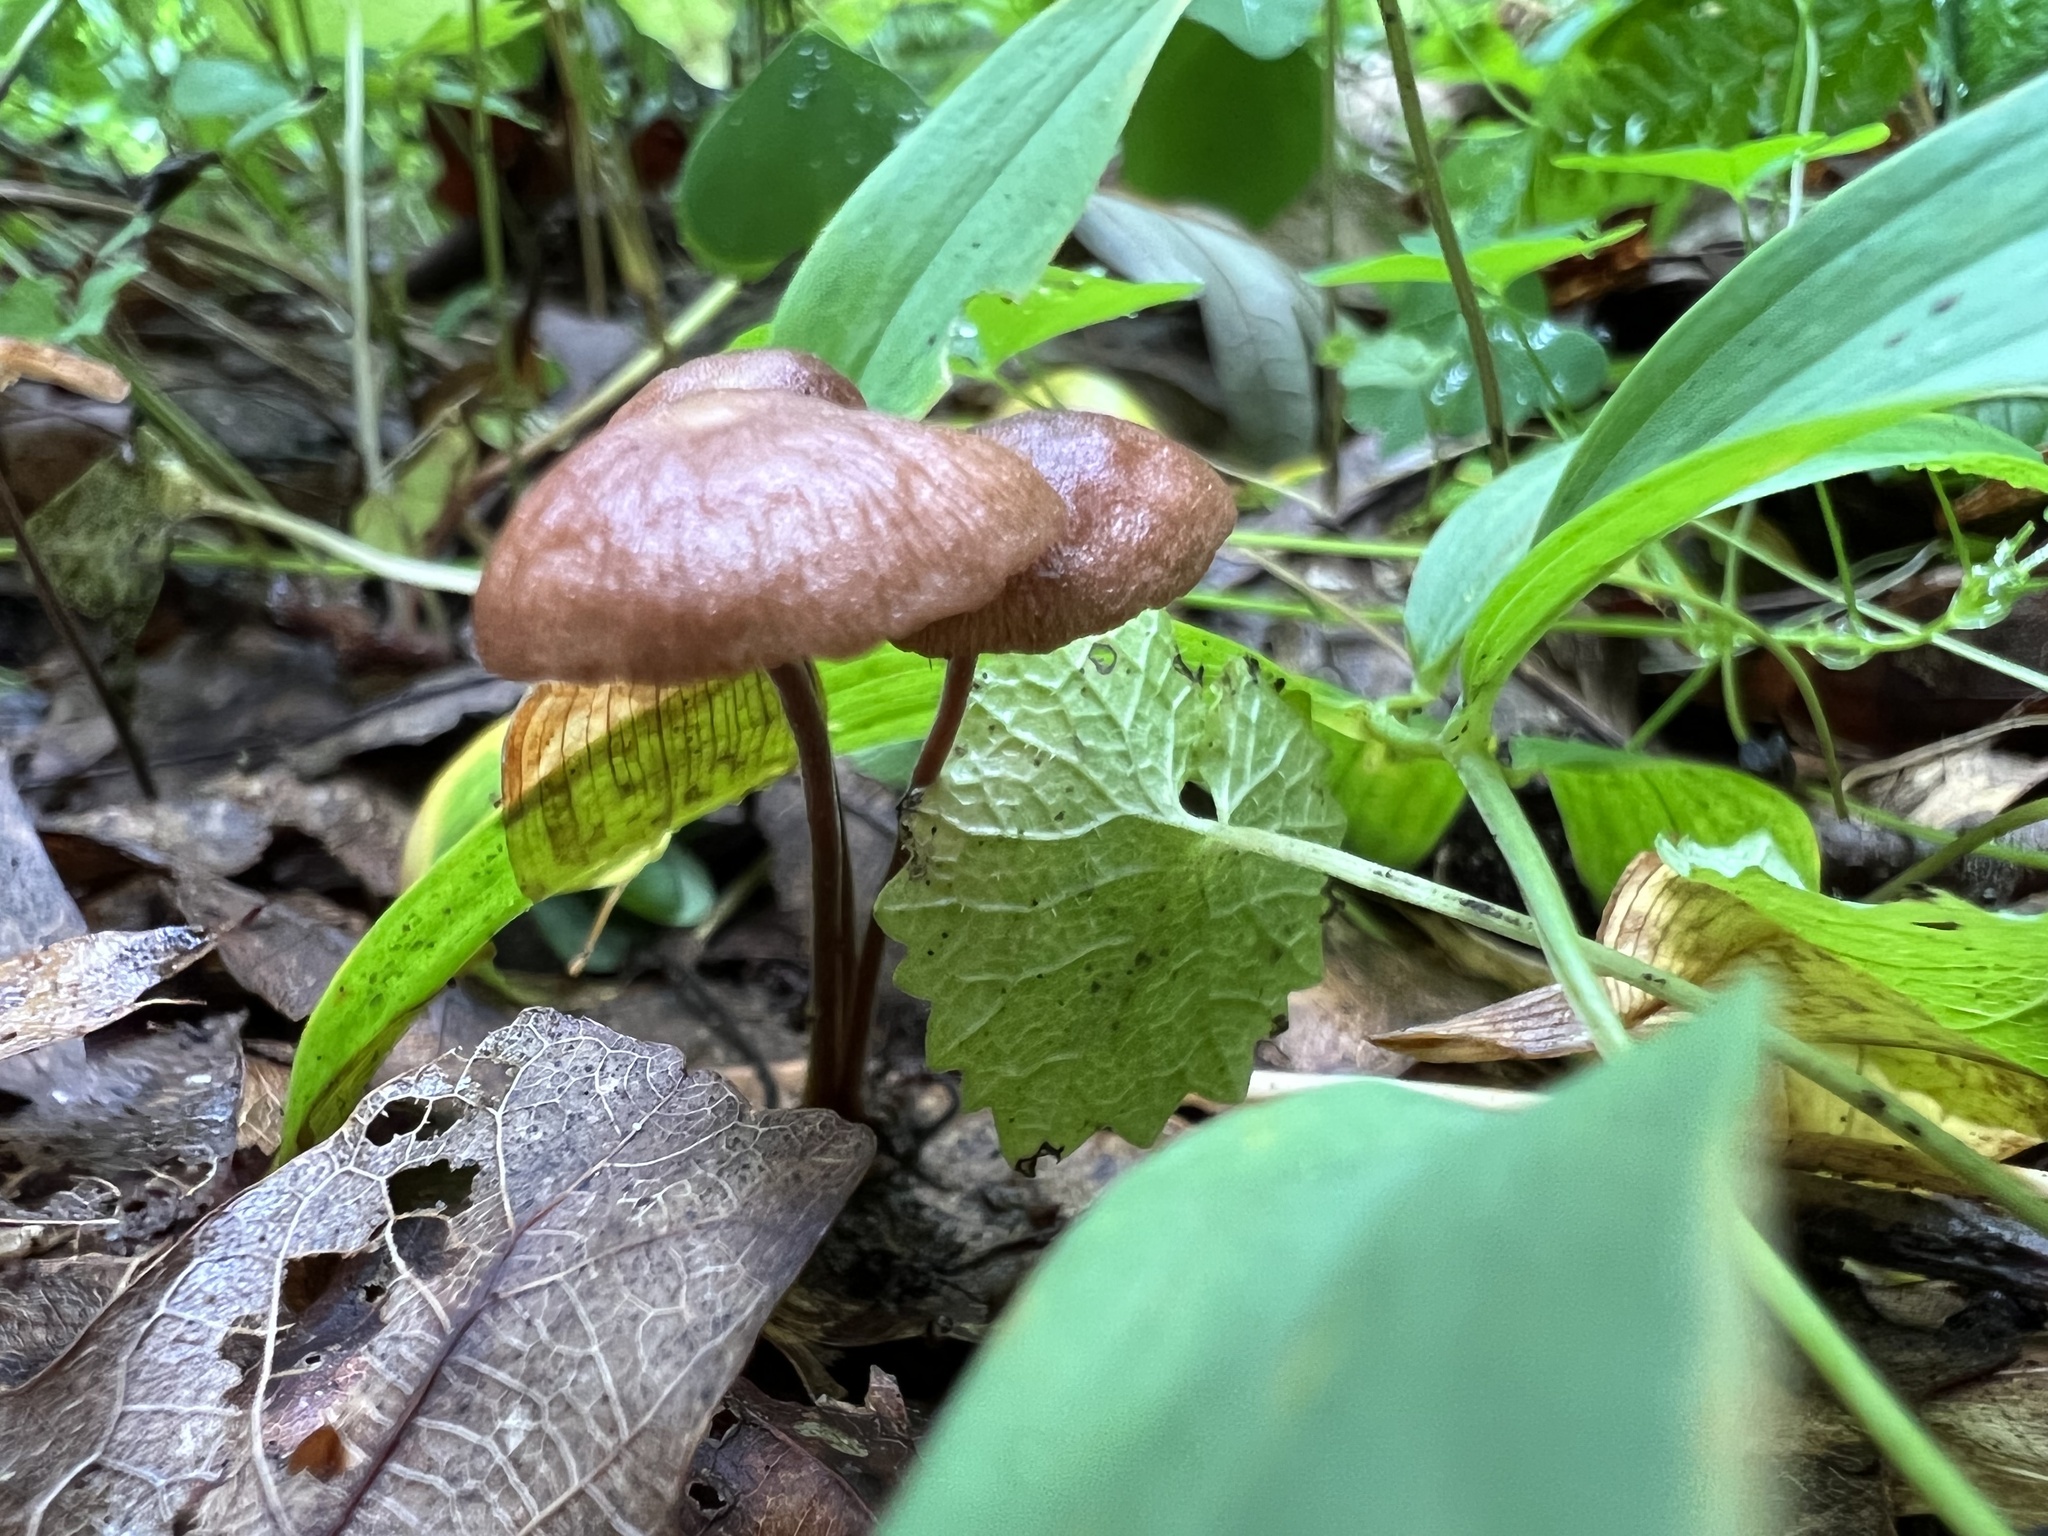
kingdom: Fungi
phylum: Basidiomycota
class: Agaricomycetes
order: Agaricales
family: Physalacriaceae
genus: Rhizomarasmius
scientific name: Rhizomarasmius pyrrhocephalus
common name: Hairy long stem marasmius
